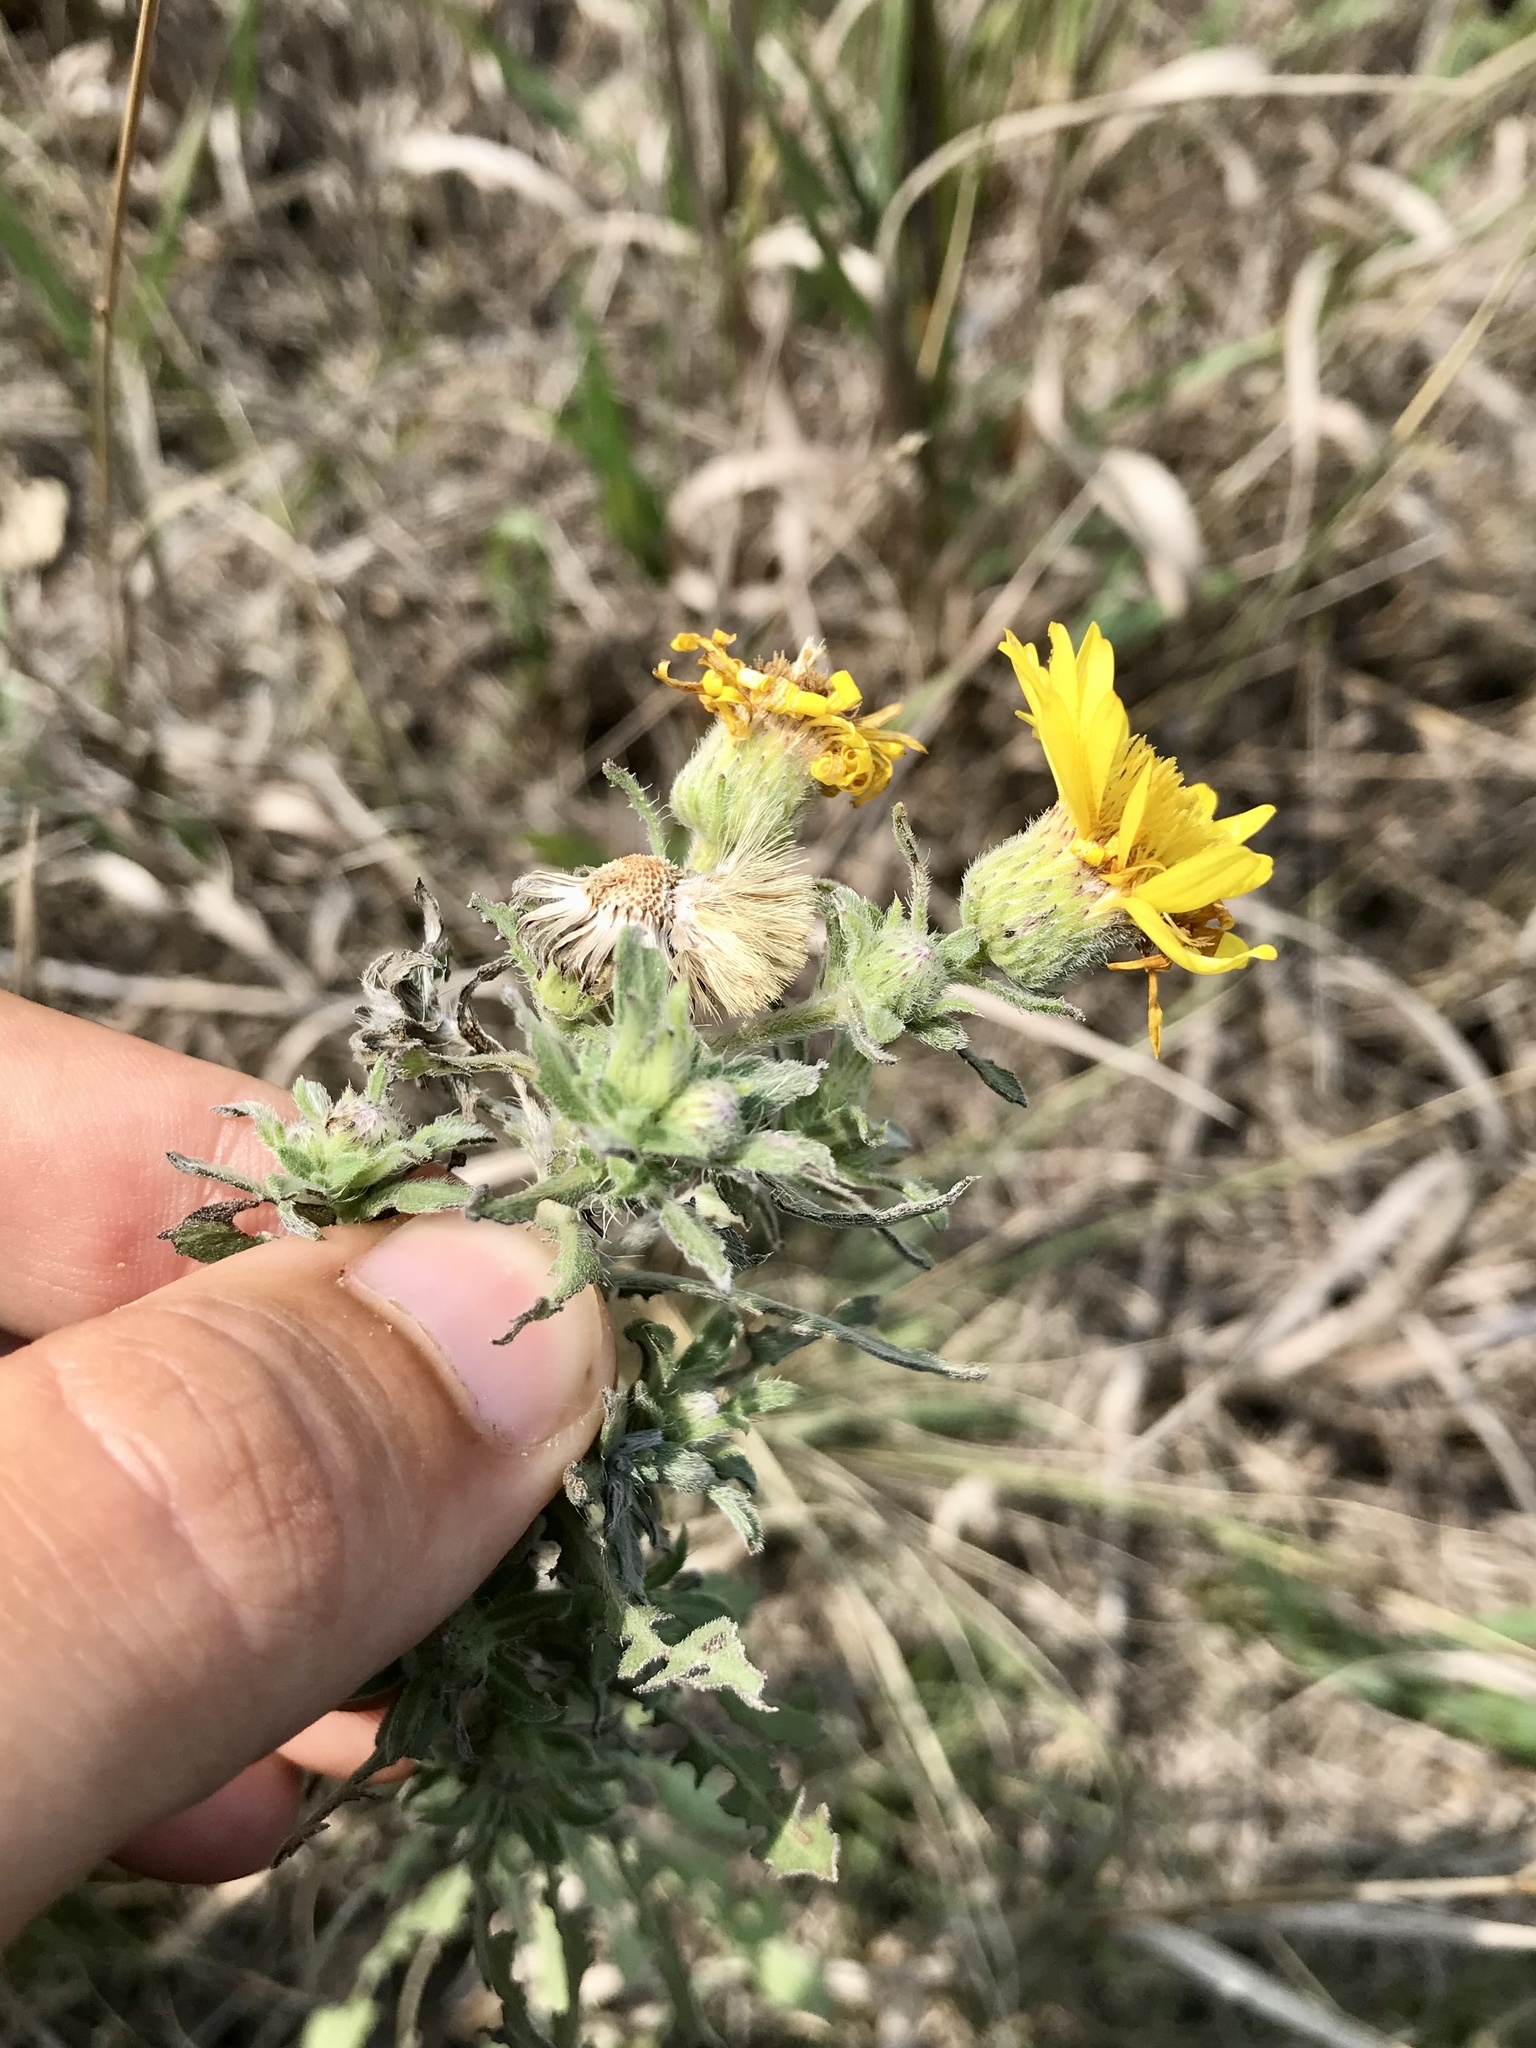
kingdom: Plantae
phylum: Tracheophyta
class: Magnoliopsida
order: Asterales
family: Asteraceae
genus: Heterotheca
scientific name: Heterotheca villosa
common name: Hairy false goldenaster
